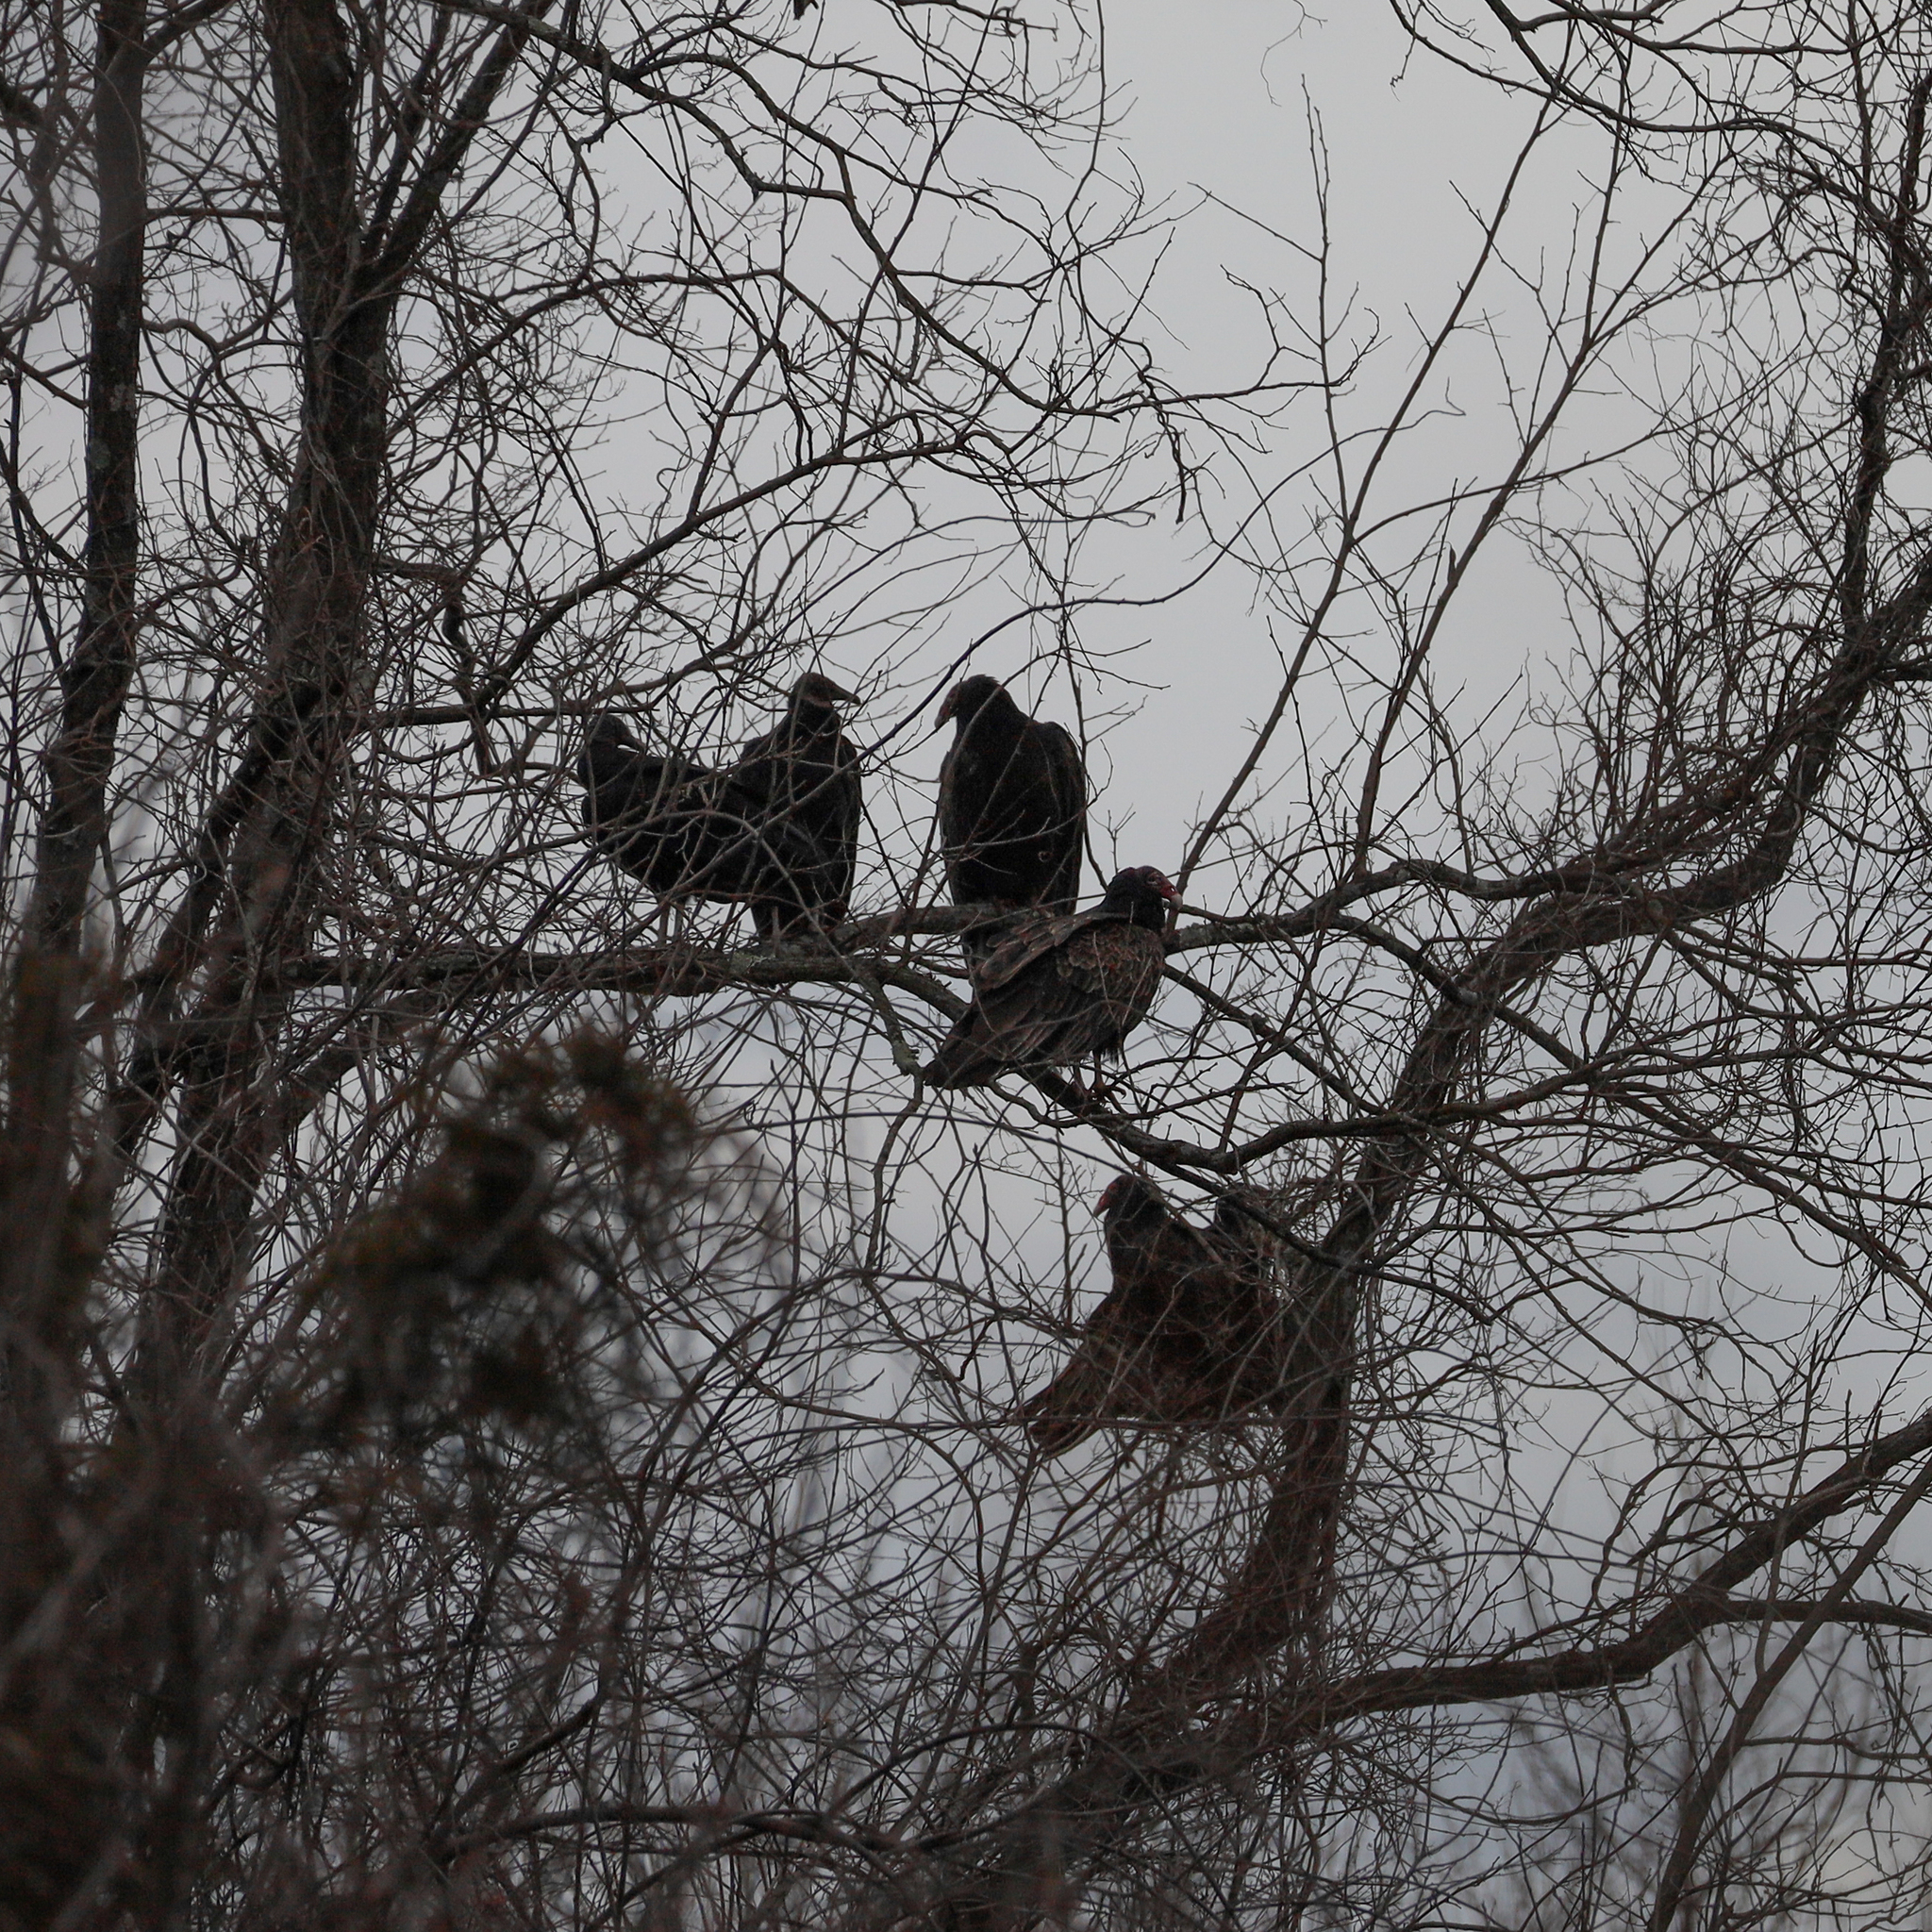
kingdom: Animalia
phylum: Chordata
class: Aves
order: Accipitriformes
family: Cathartidae
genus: Cathartes
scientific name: Cathartes aura
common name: Turkey vulture
